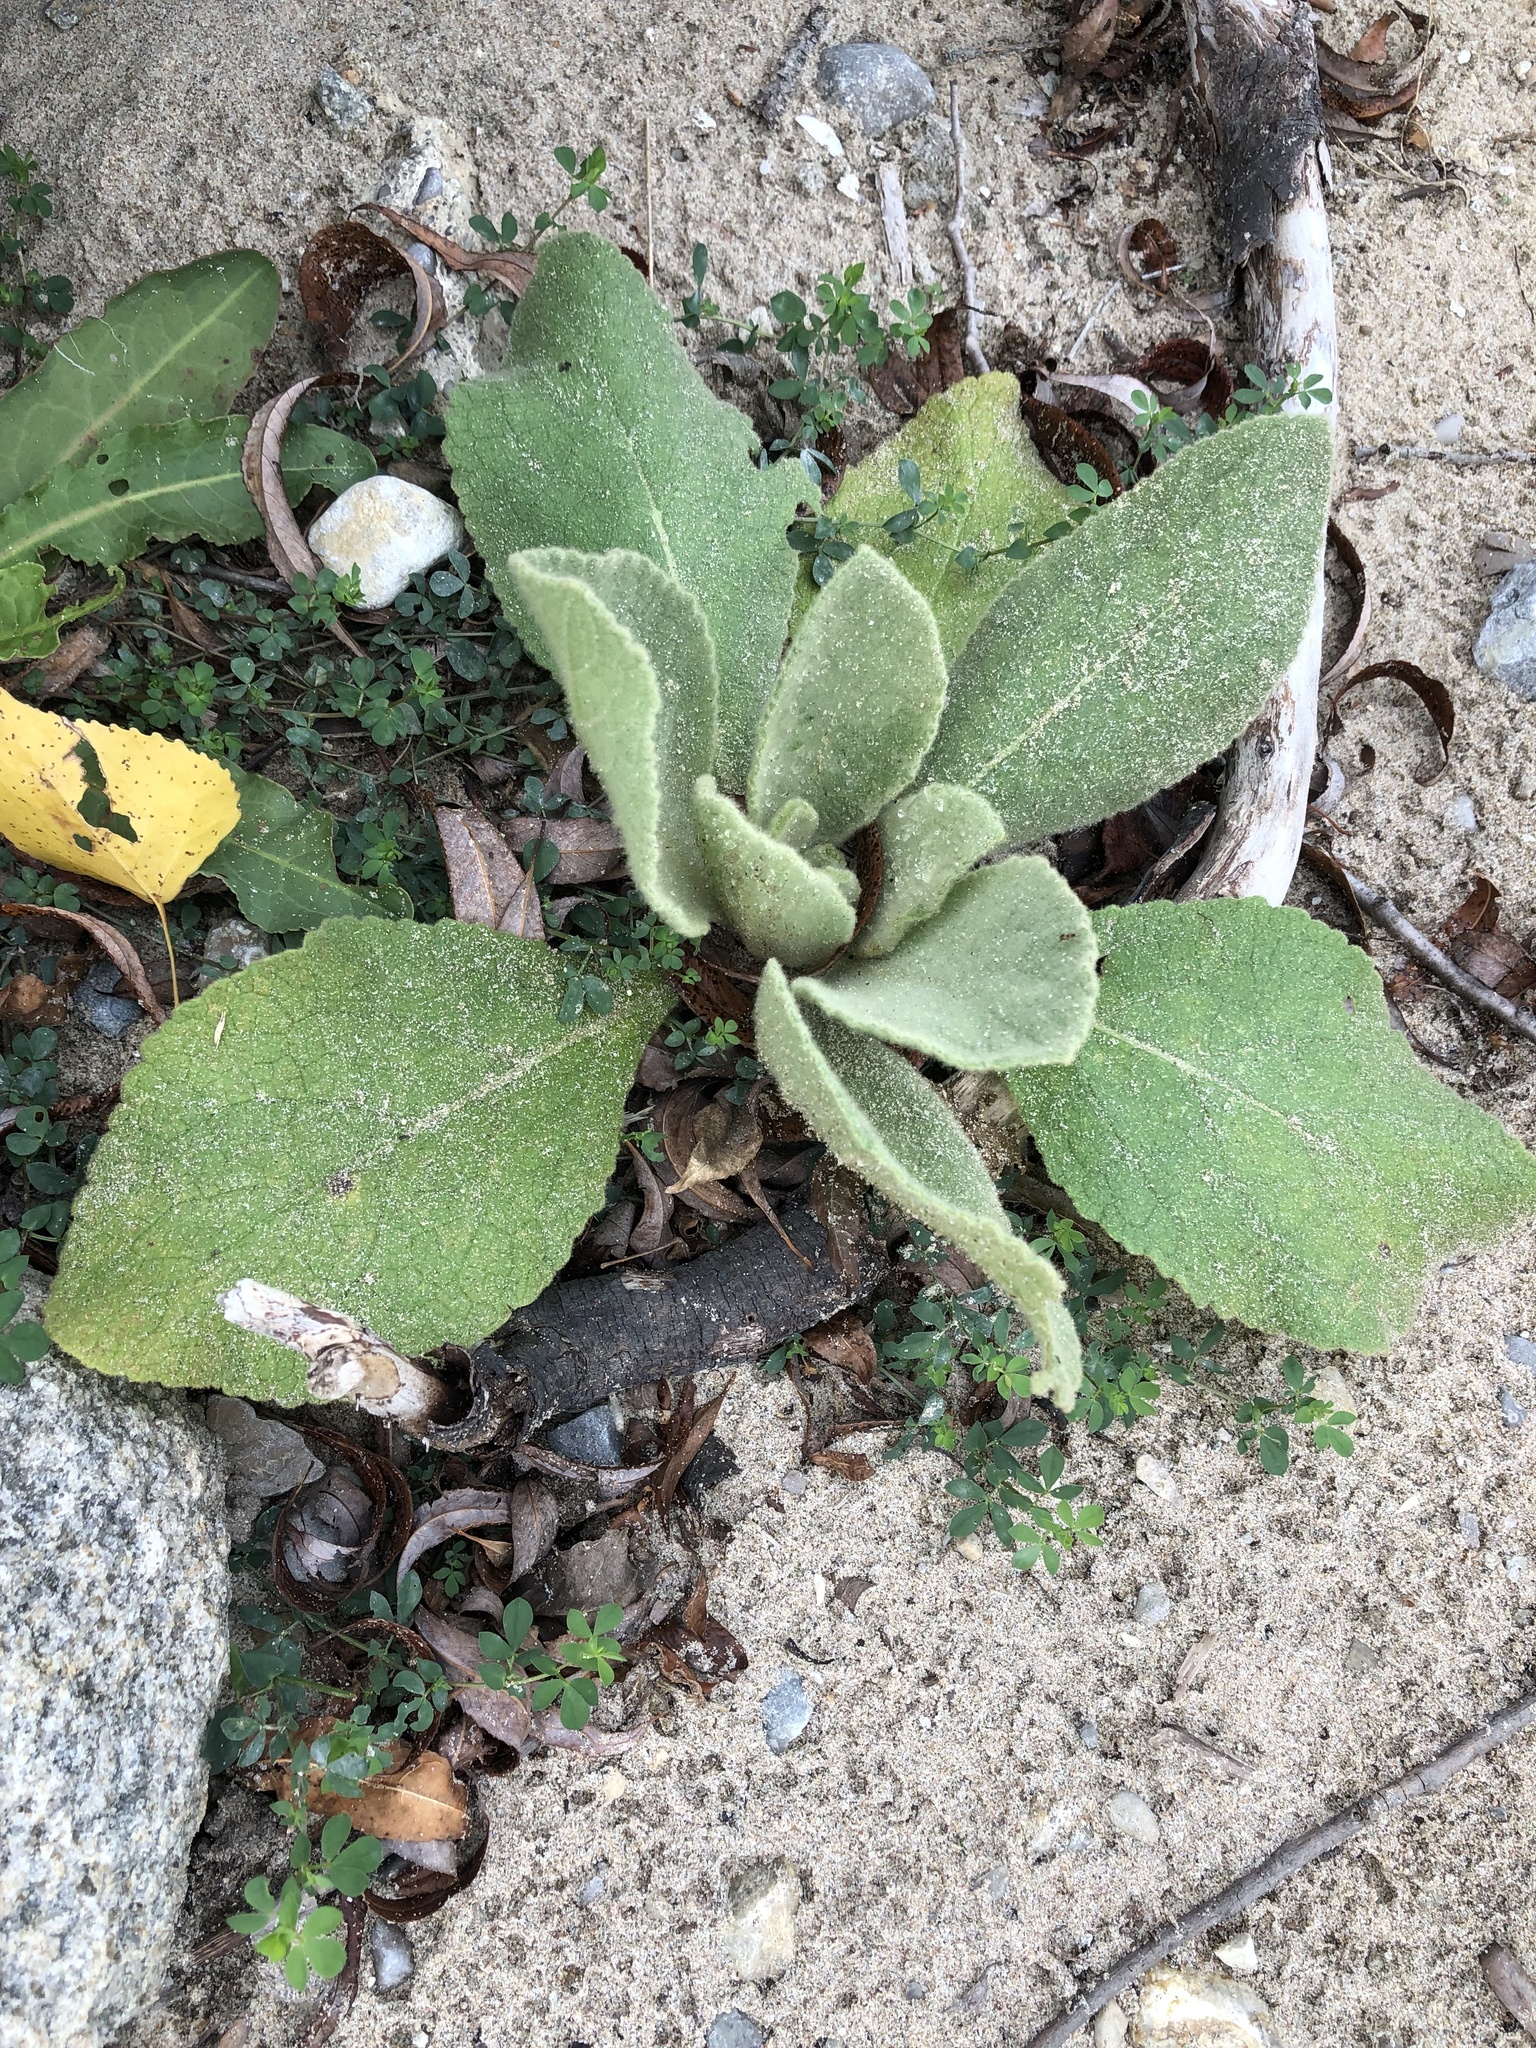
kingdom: Plantae
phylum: Tracheophyta
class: Magnoliopsida
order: Lamiales
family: Scrophulariaceae
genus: Verbascum
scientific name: Verbascum thapsus
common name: Common mullein
